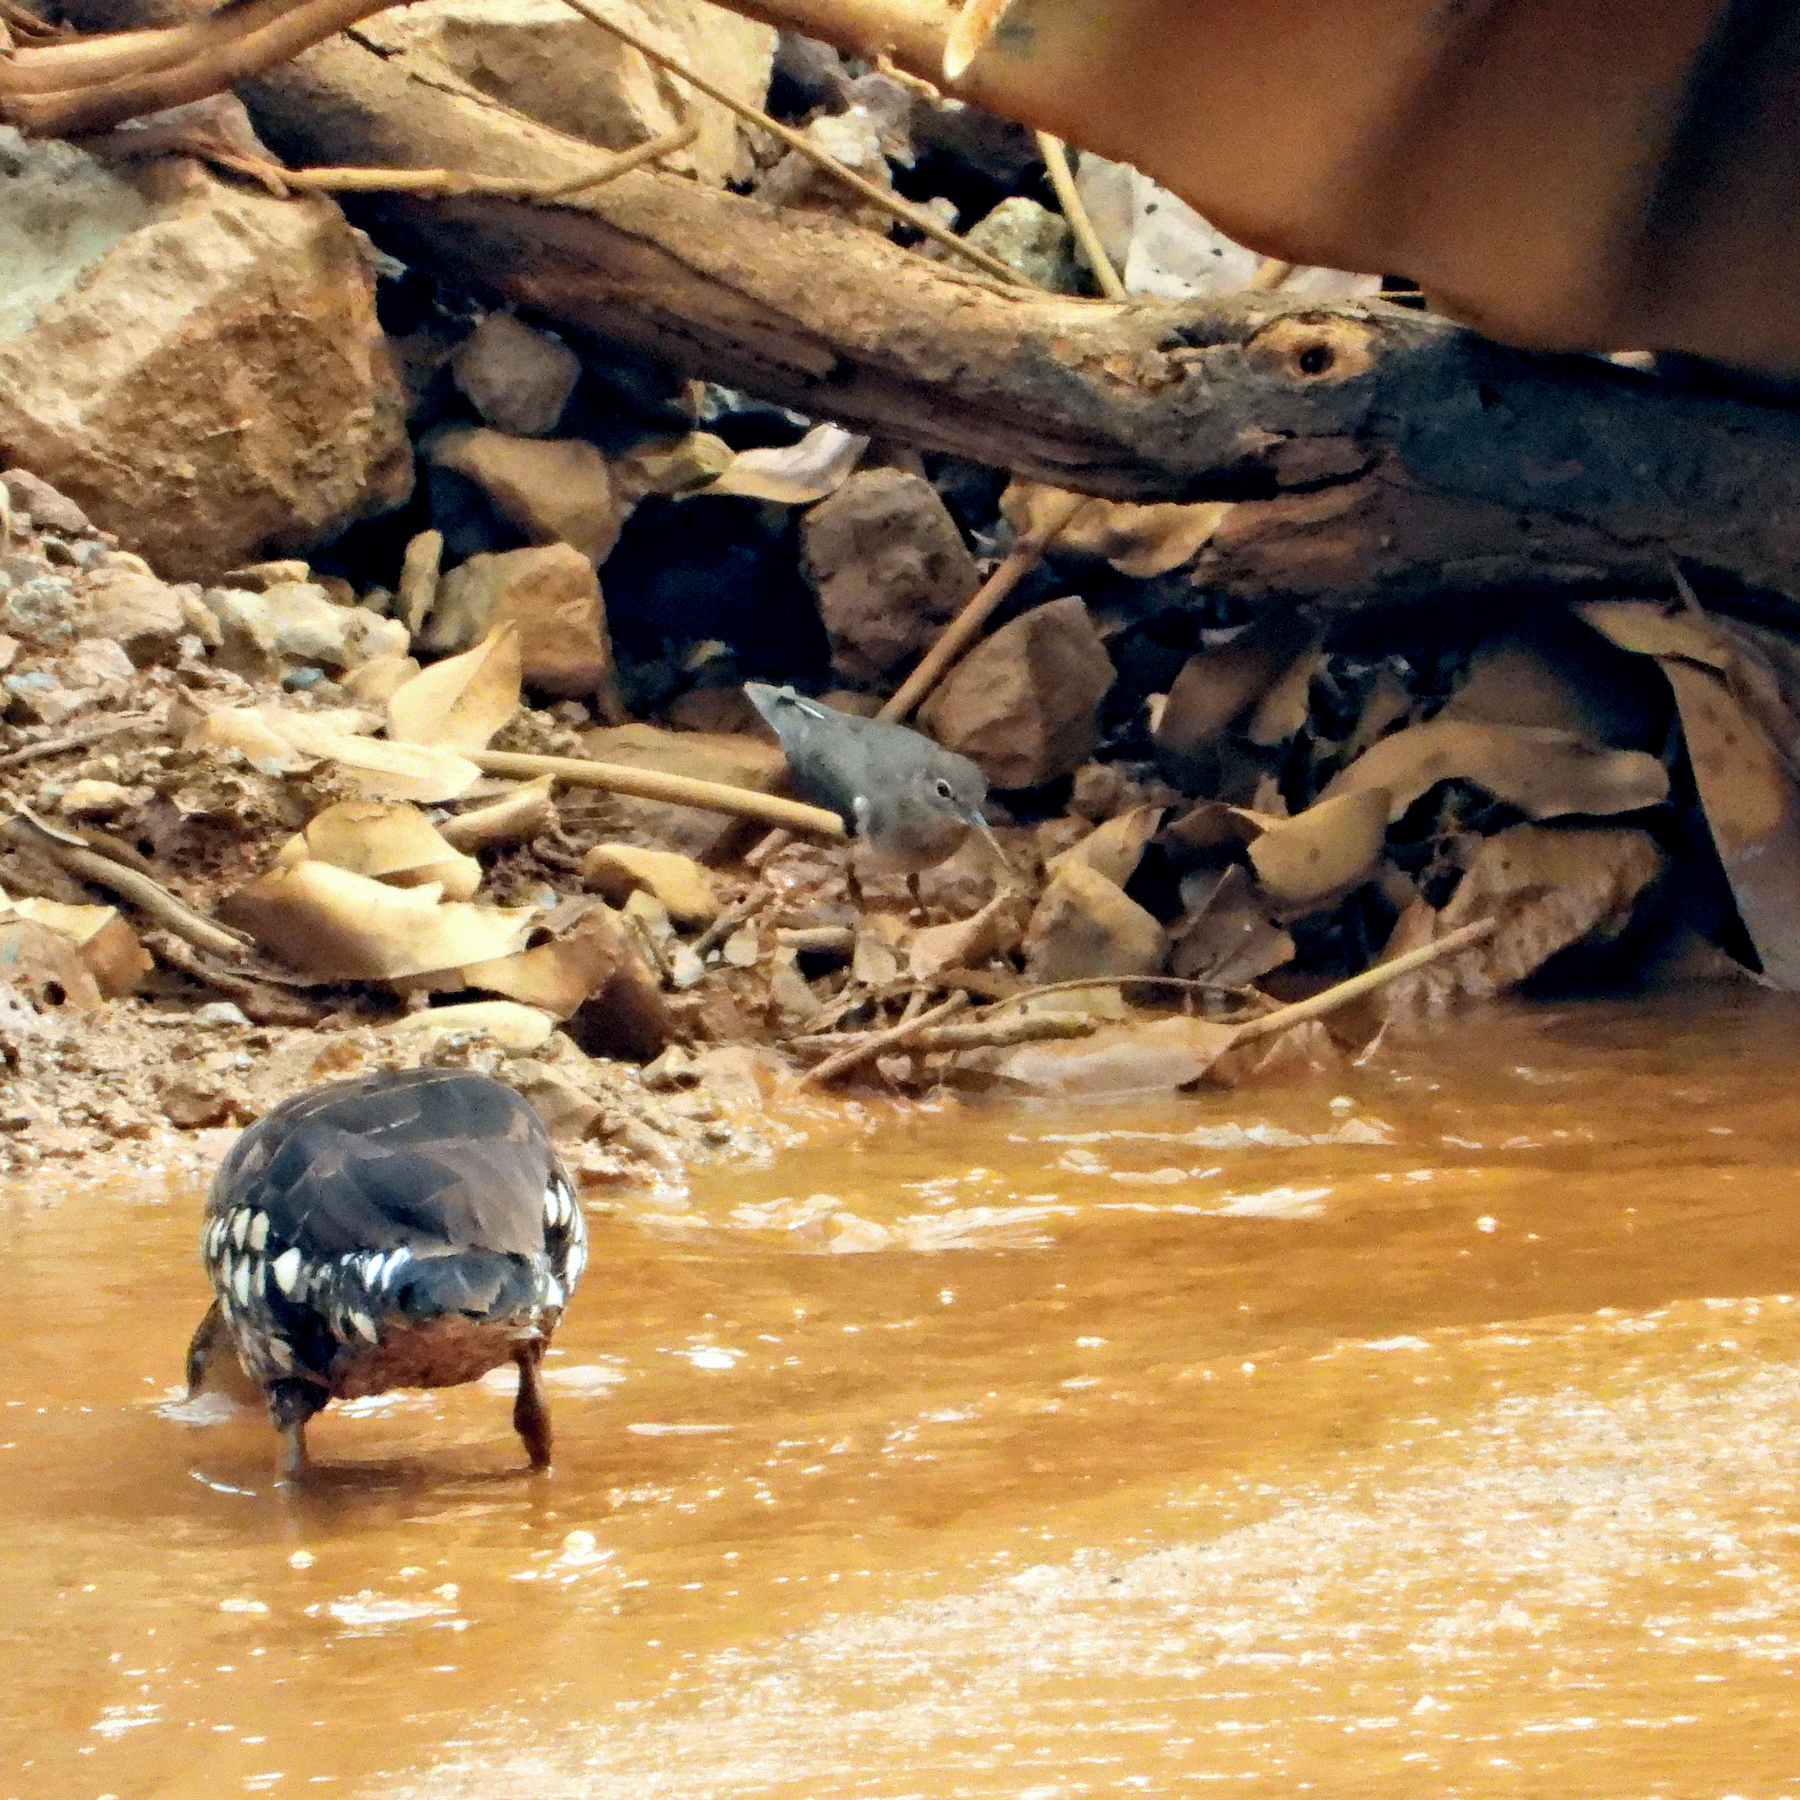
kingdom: Animalia
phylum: Chordata
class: Aves
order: Charadriiformes
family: Scolopacidae
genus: Actitis
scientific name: Actitis hypoleucos
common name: Common sandpiper
